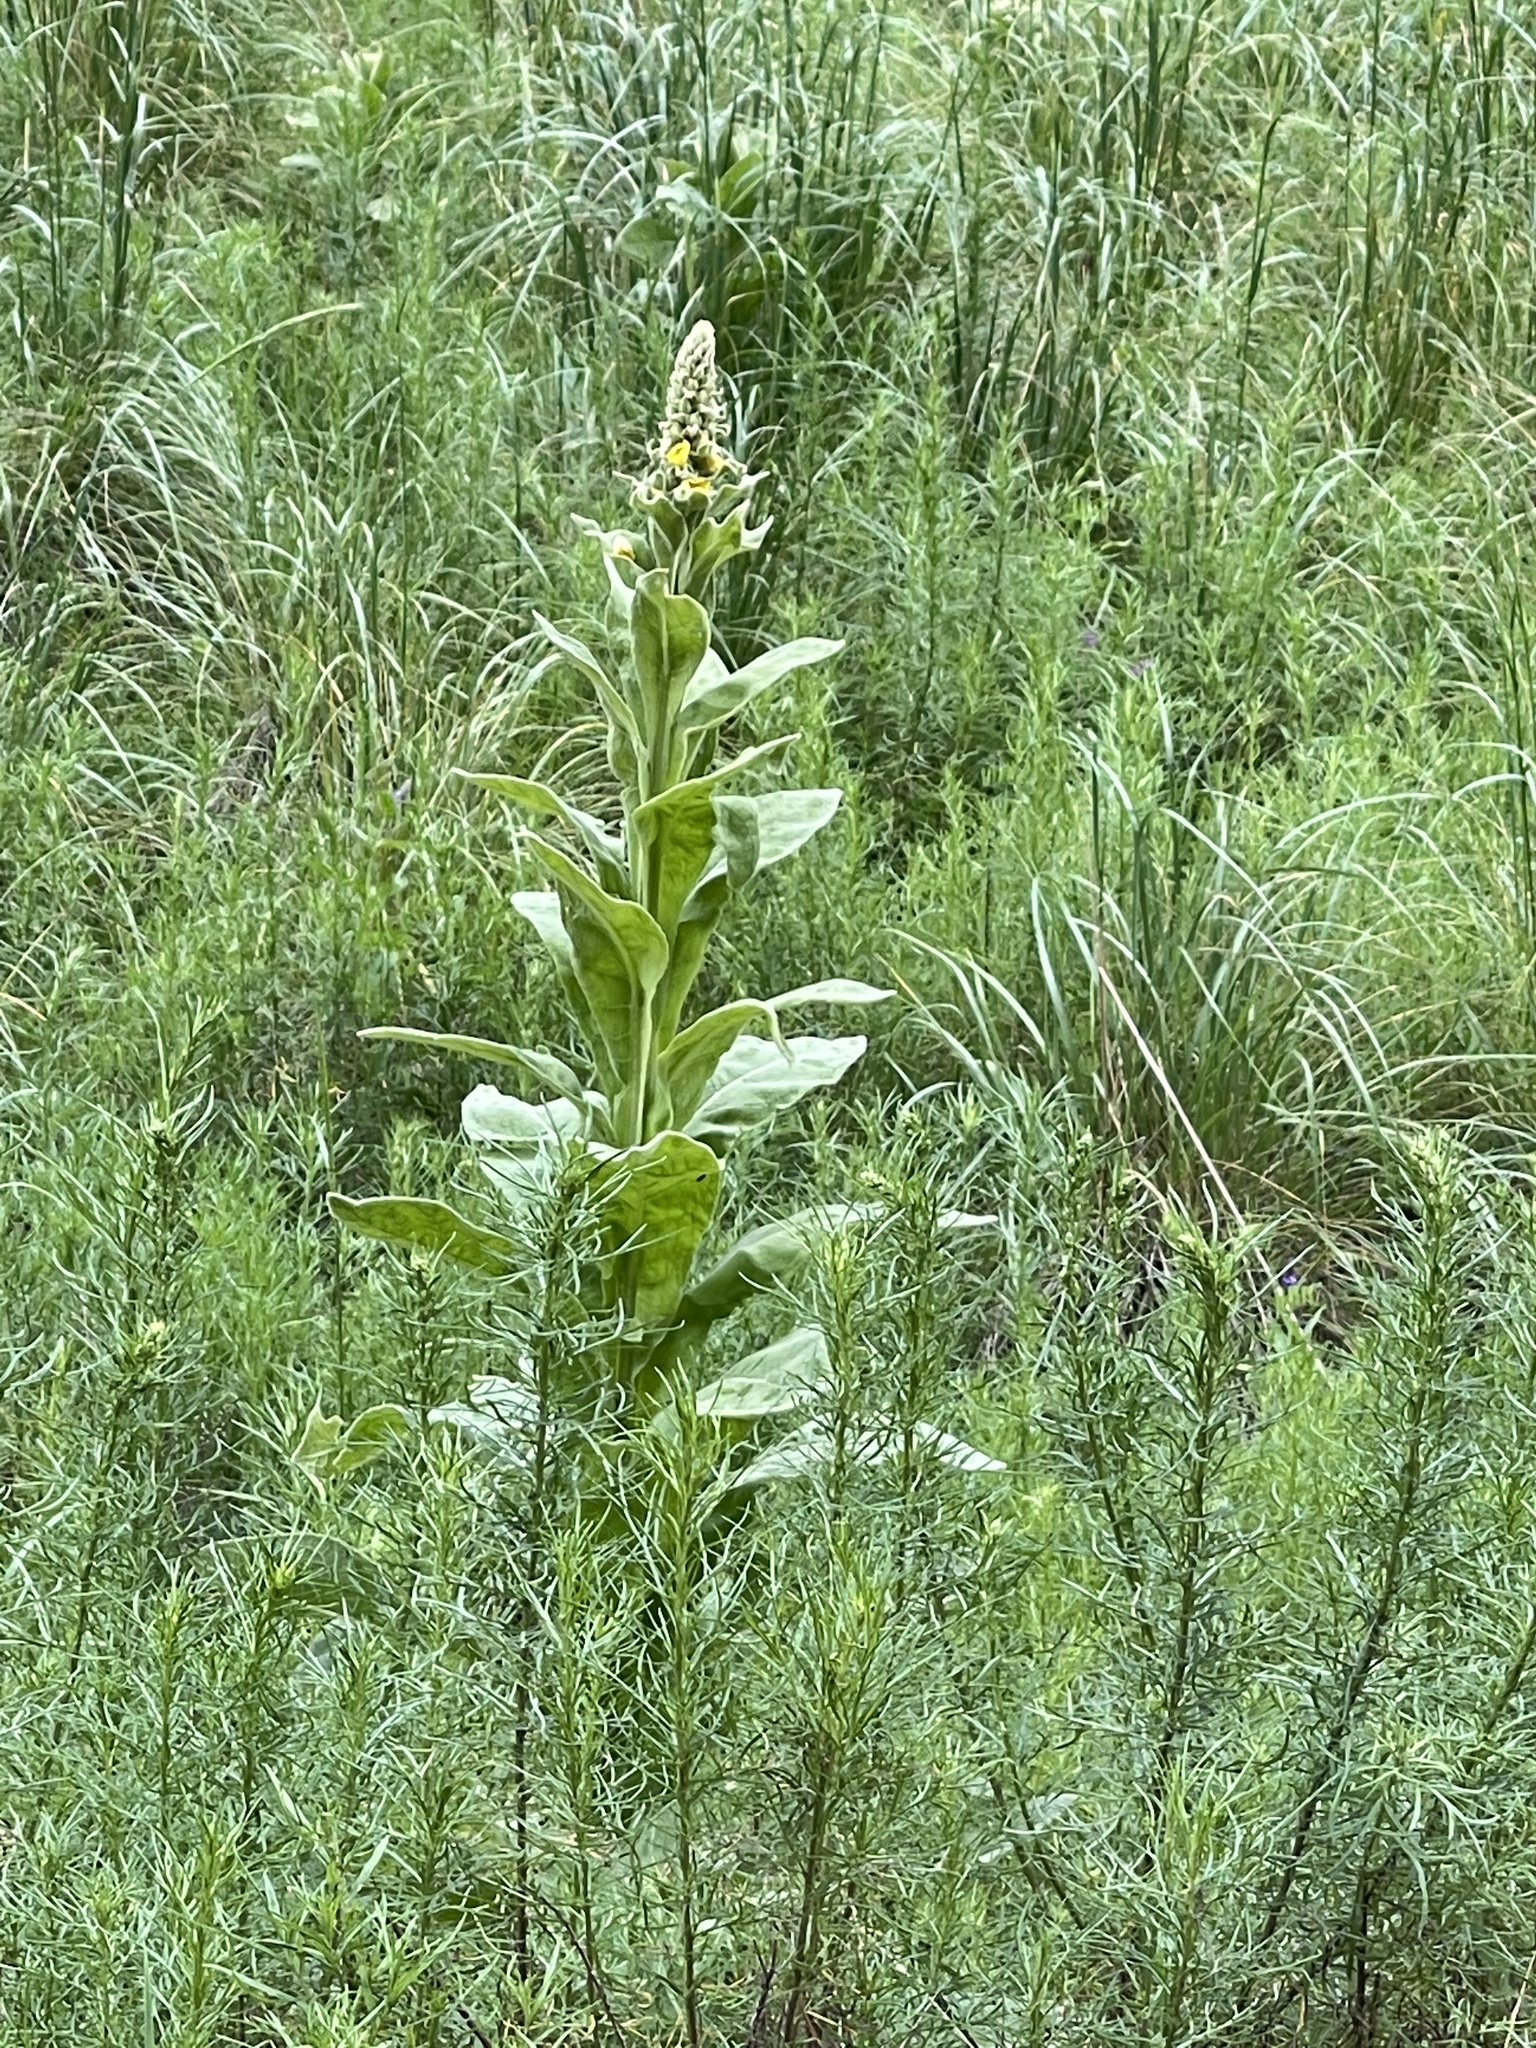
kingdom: Plantae
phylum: Tracheophyta
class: Magnoliopsida
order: Lamiales
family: Scrophulariaceae
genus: Verbascum
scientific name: Verbascum thapsus
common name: Common mullein
